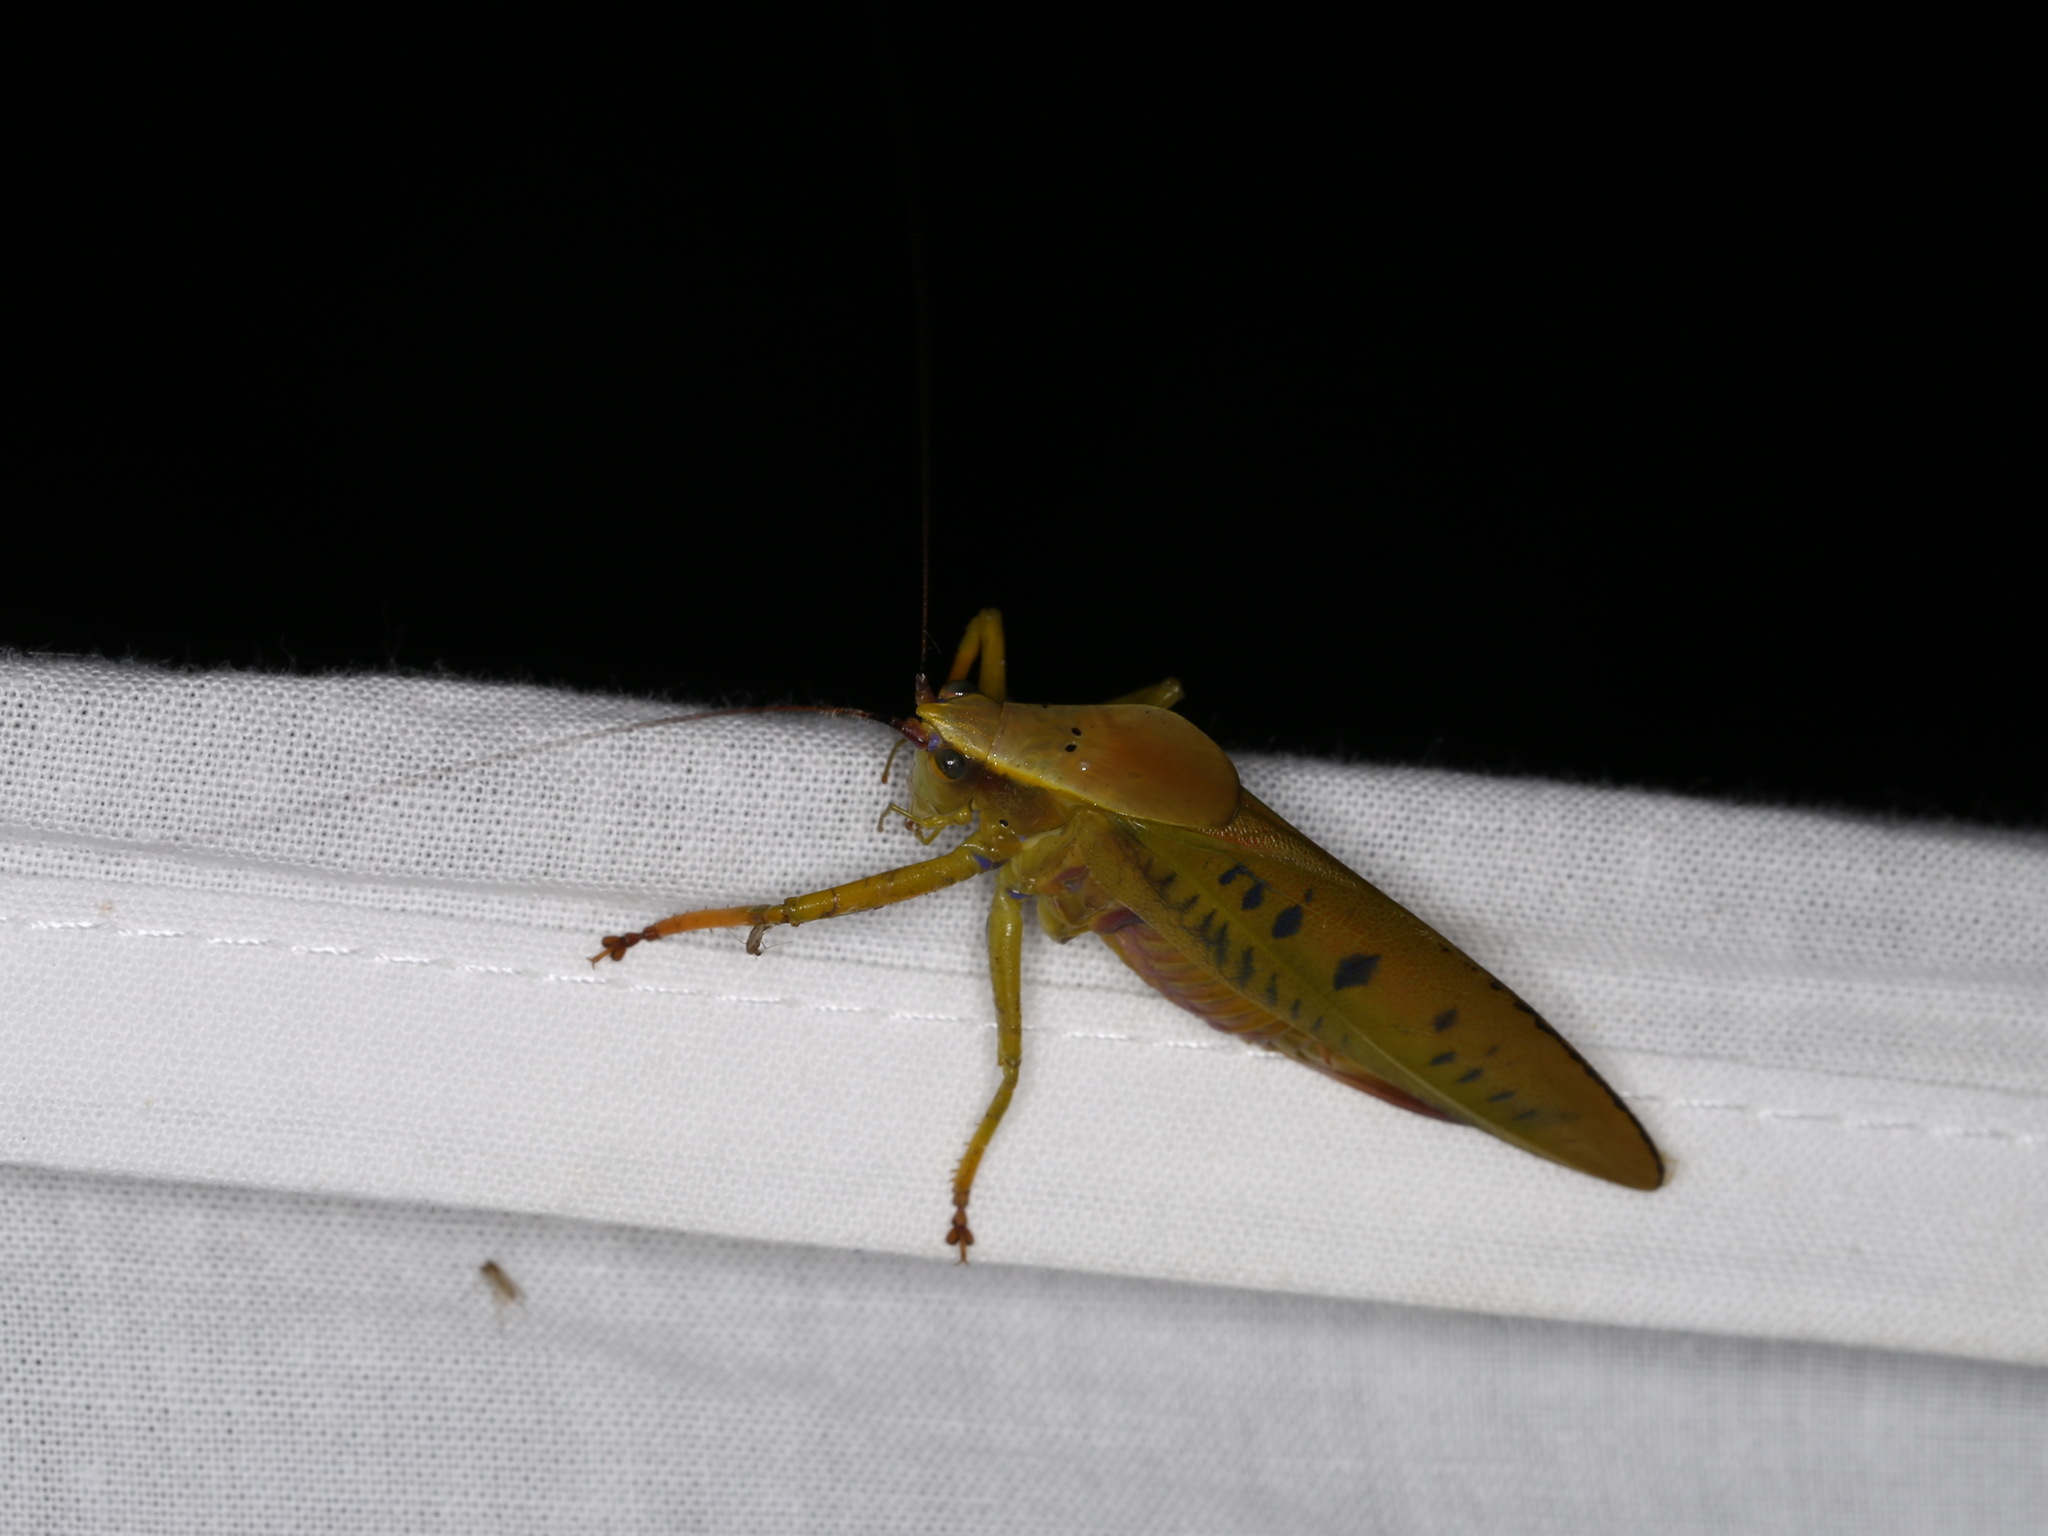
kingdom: Animalia
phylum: Arthropoda
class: Insecta
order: Orthoptera
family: Tettigoniidae
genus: Metholce
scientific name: Metholce nigritarsis
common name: Black-footed gondwanan katydid
